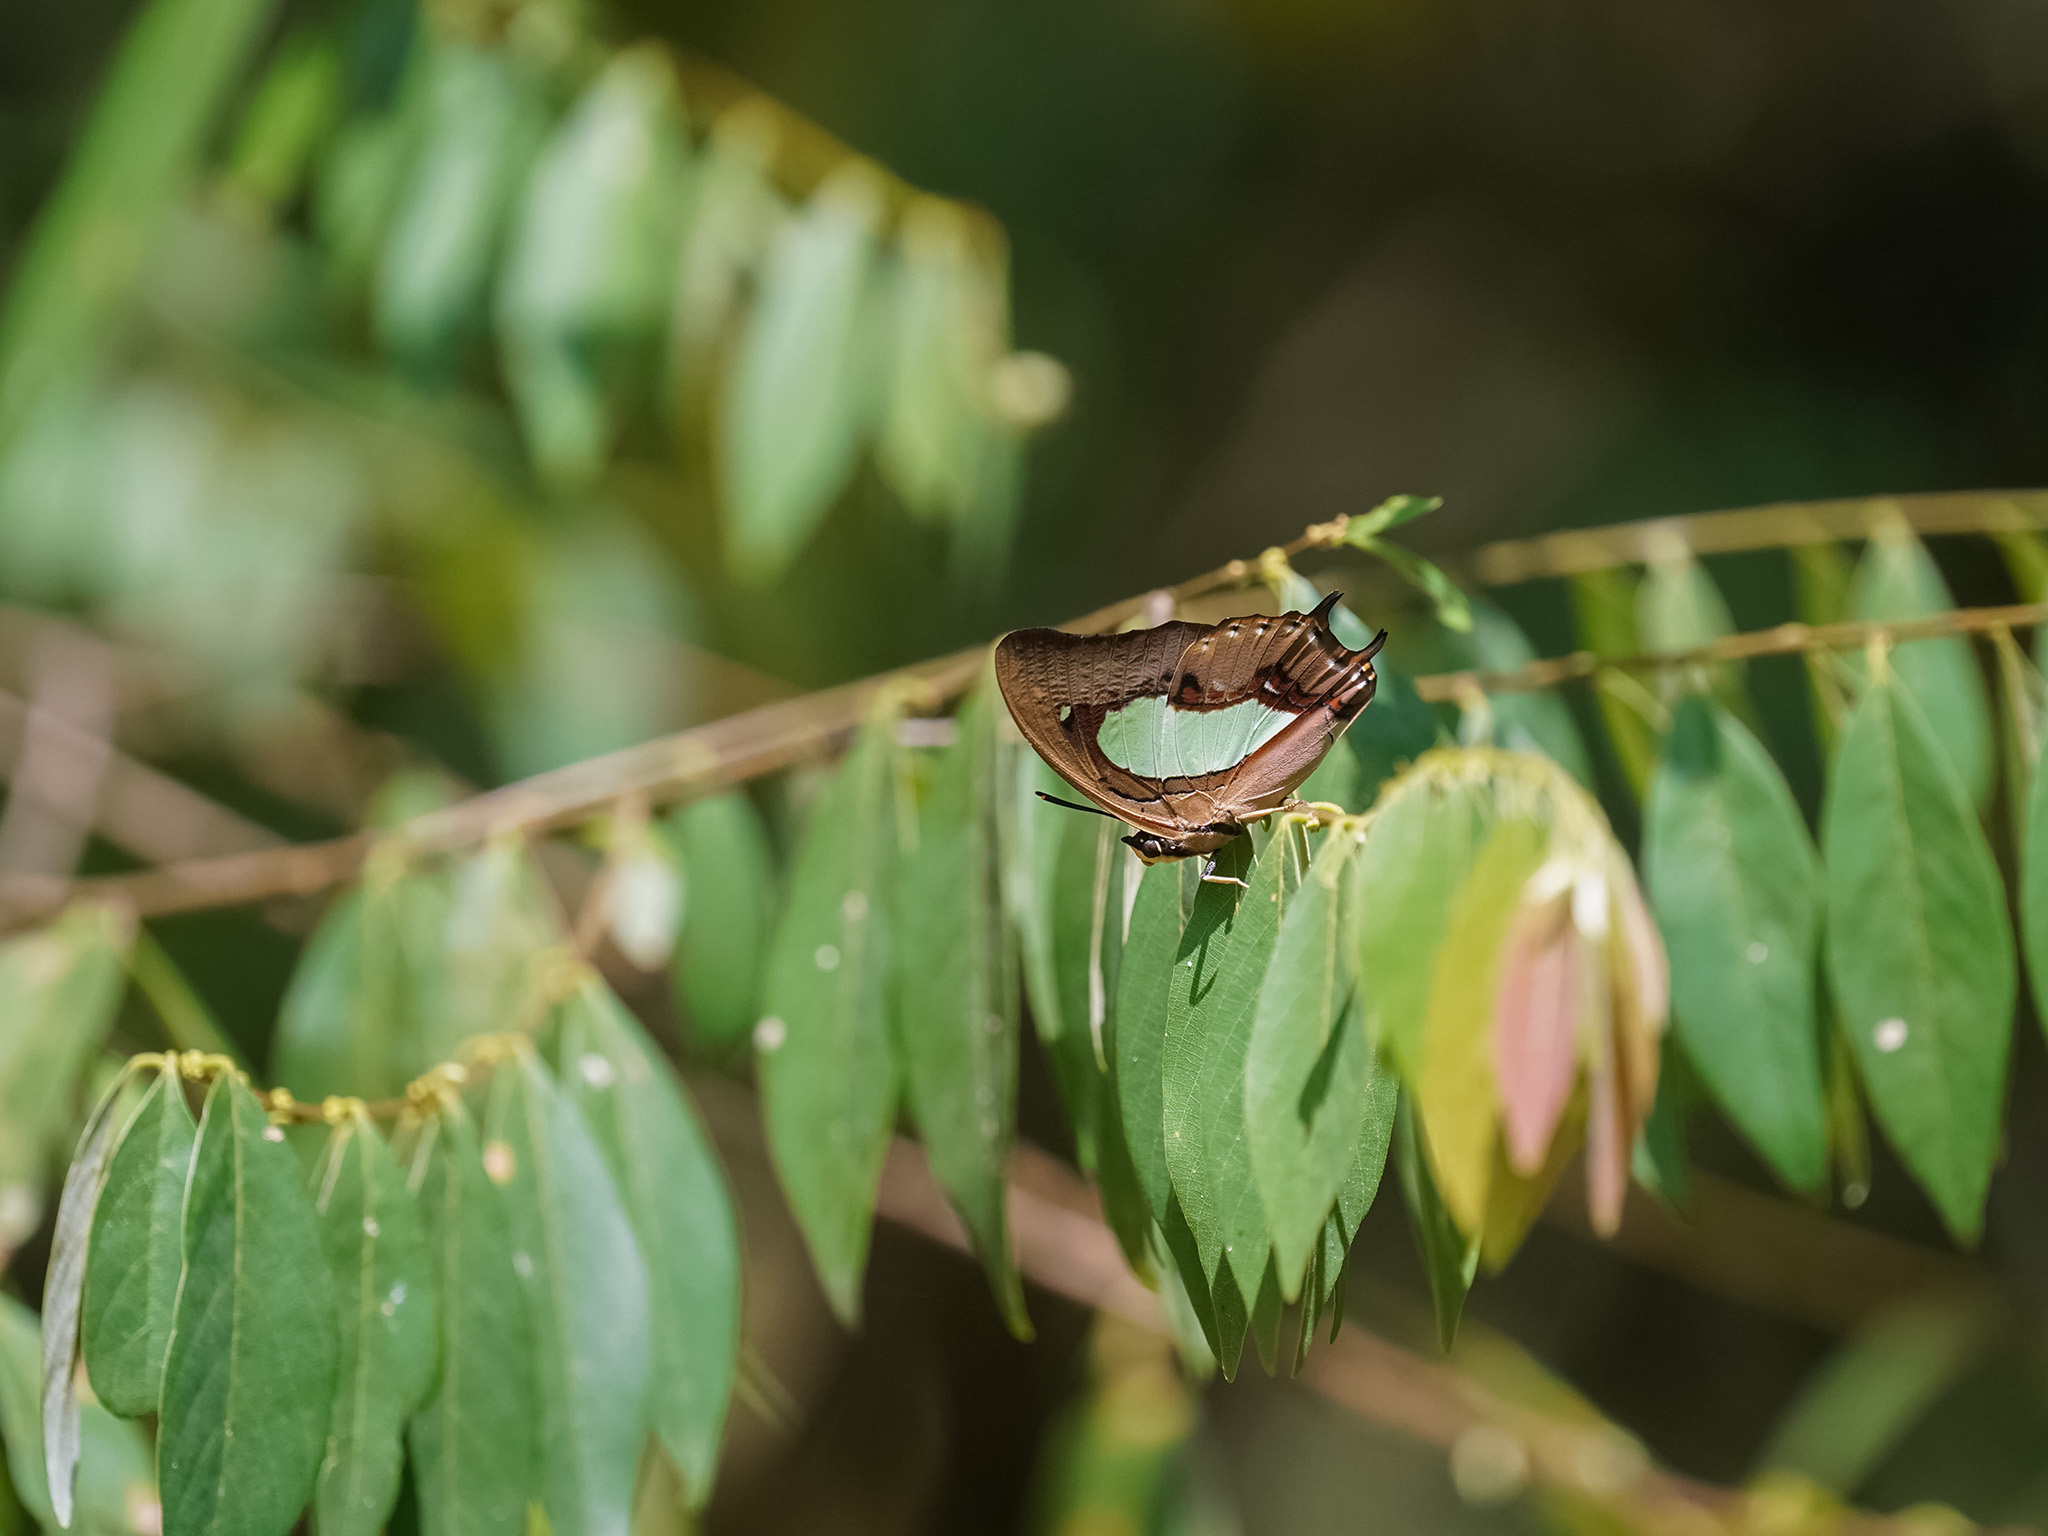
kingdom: Animalia
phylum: Arthropoda
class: Insecta
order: Lepidoptera
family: Nymphalidae
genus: Polyura
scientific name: Polyura hebe
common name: Plain nawab
